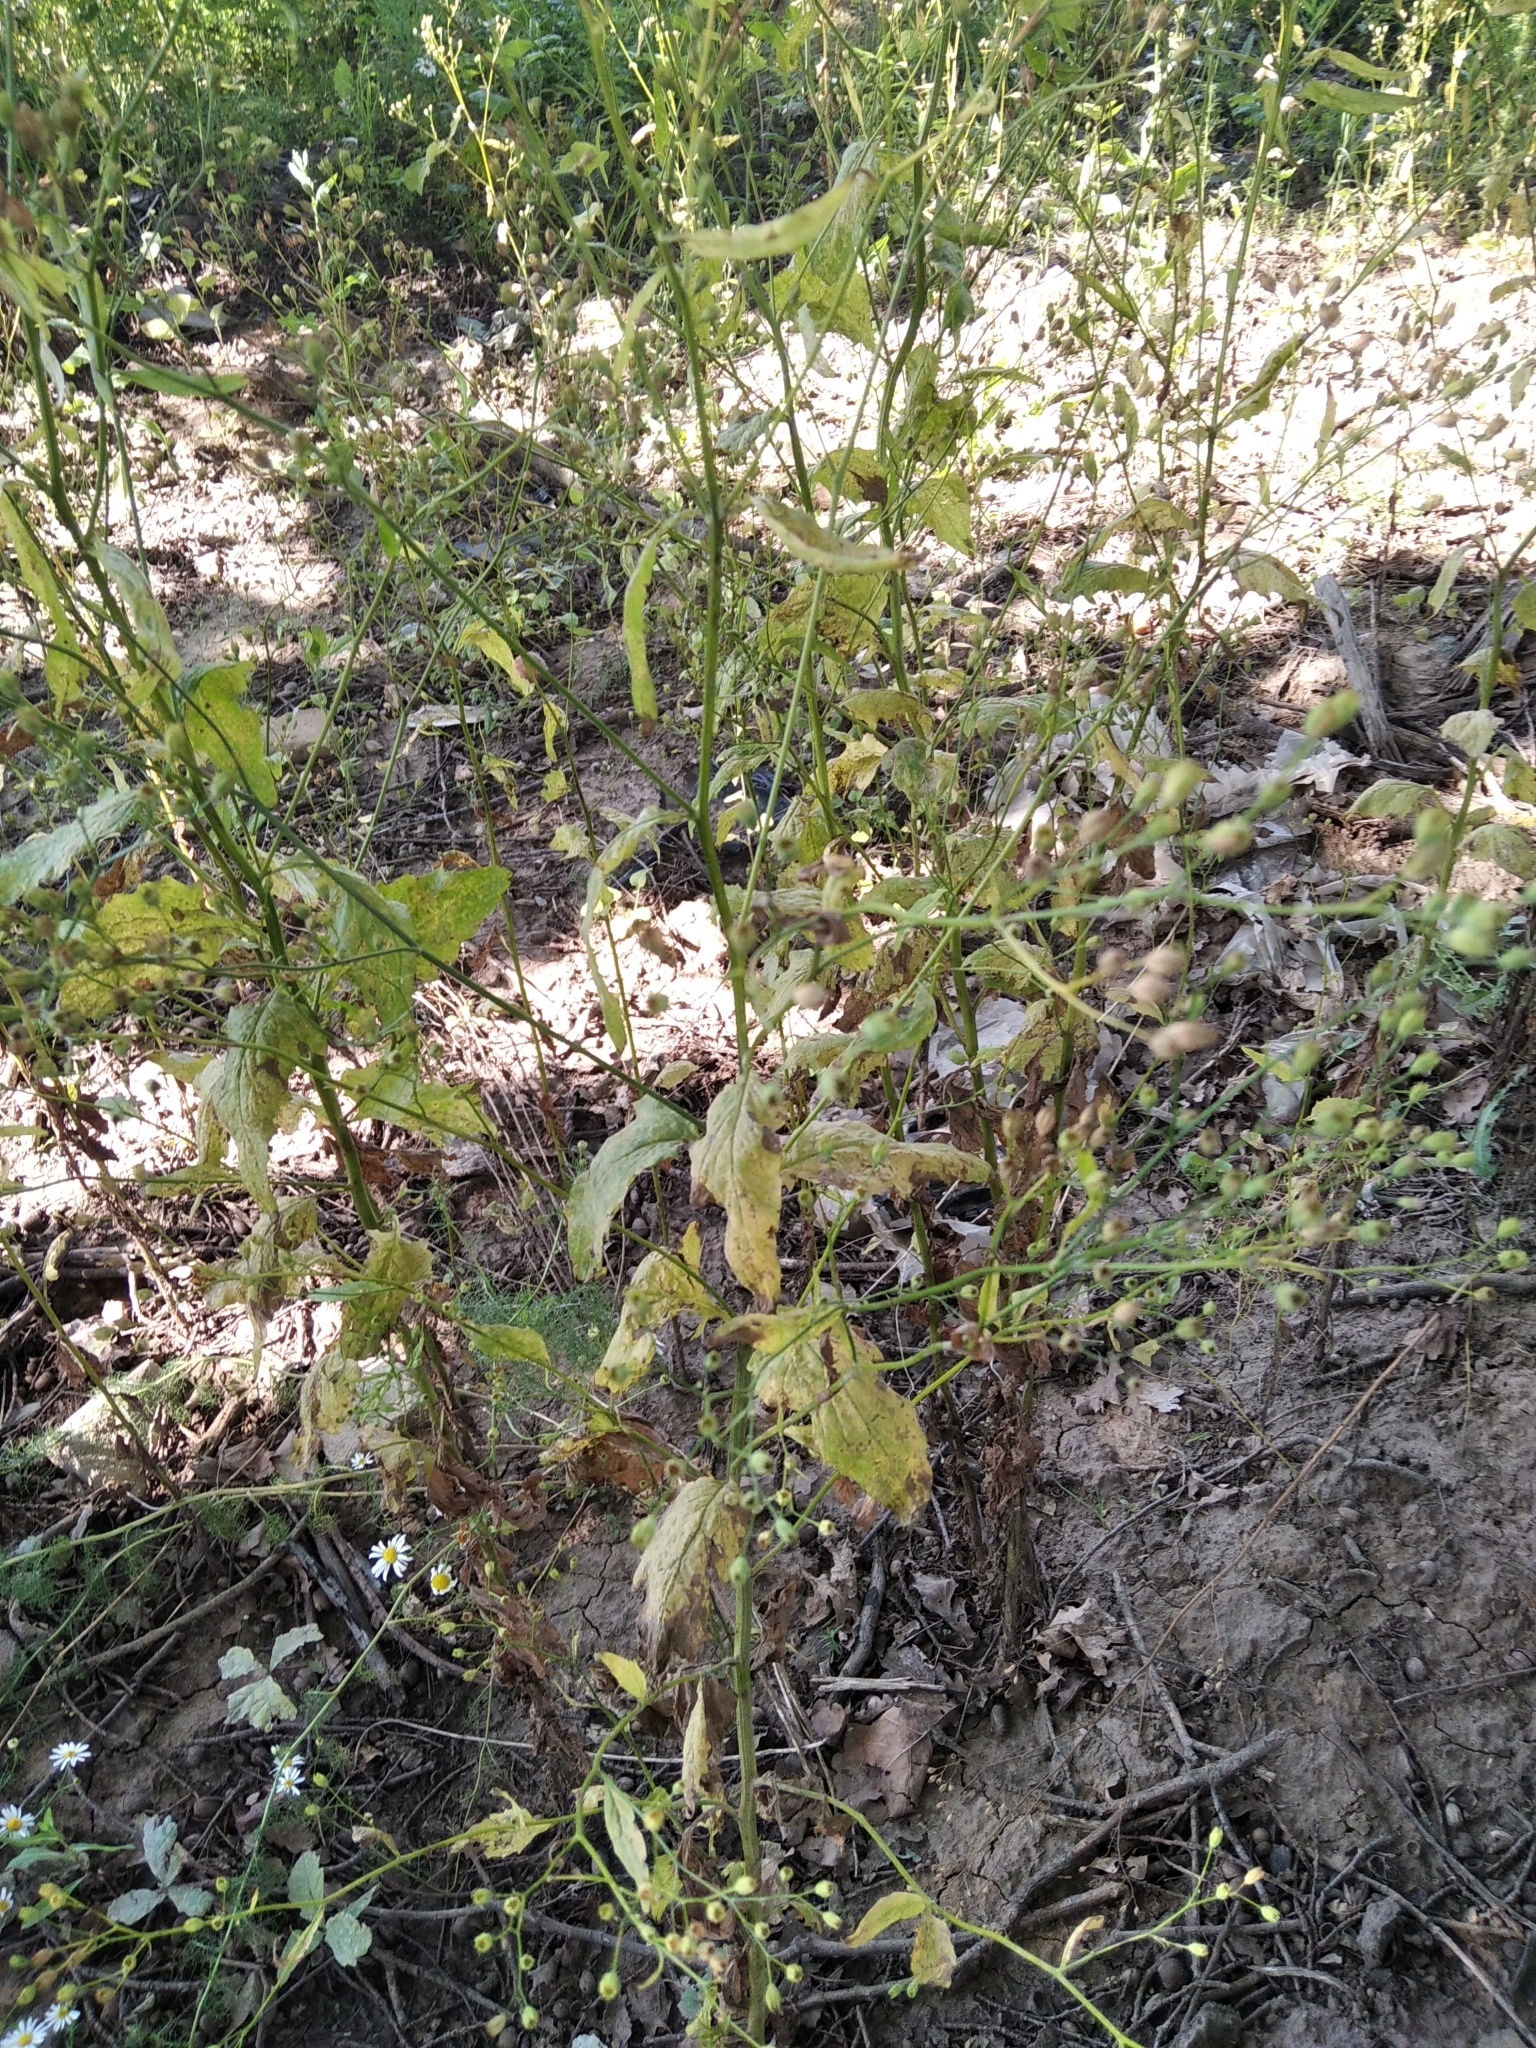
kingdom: Plantae
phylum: Tracheophyta
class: Magnoliopsida
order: Asterales
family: Asteraceae
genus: Lapsana
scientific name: Lapsana communis
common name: Nipplewort
